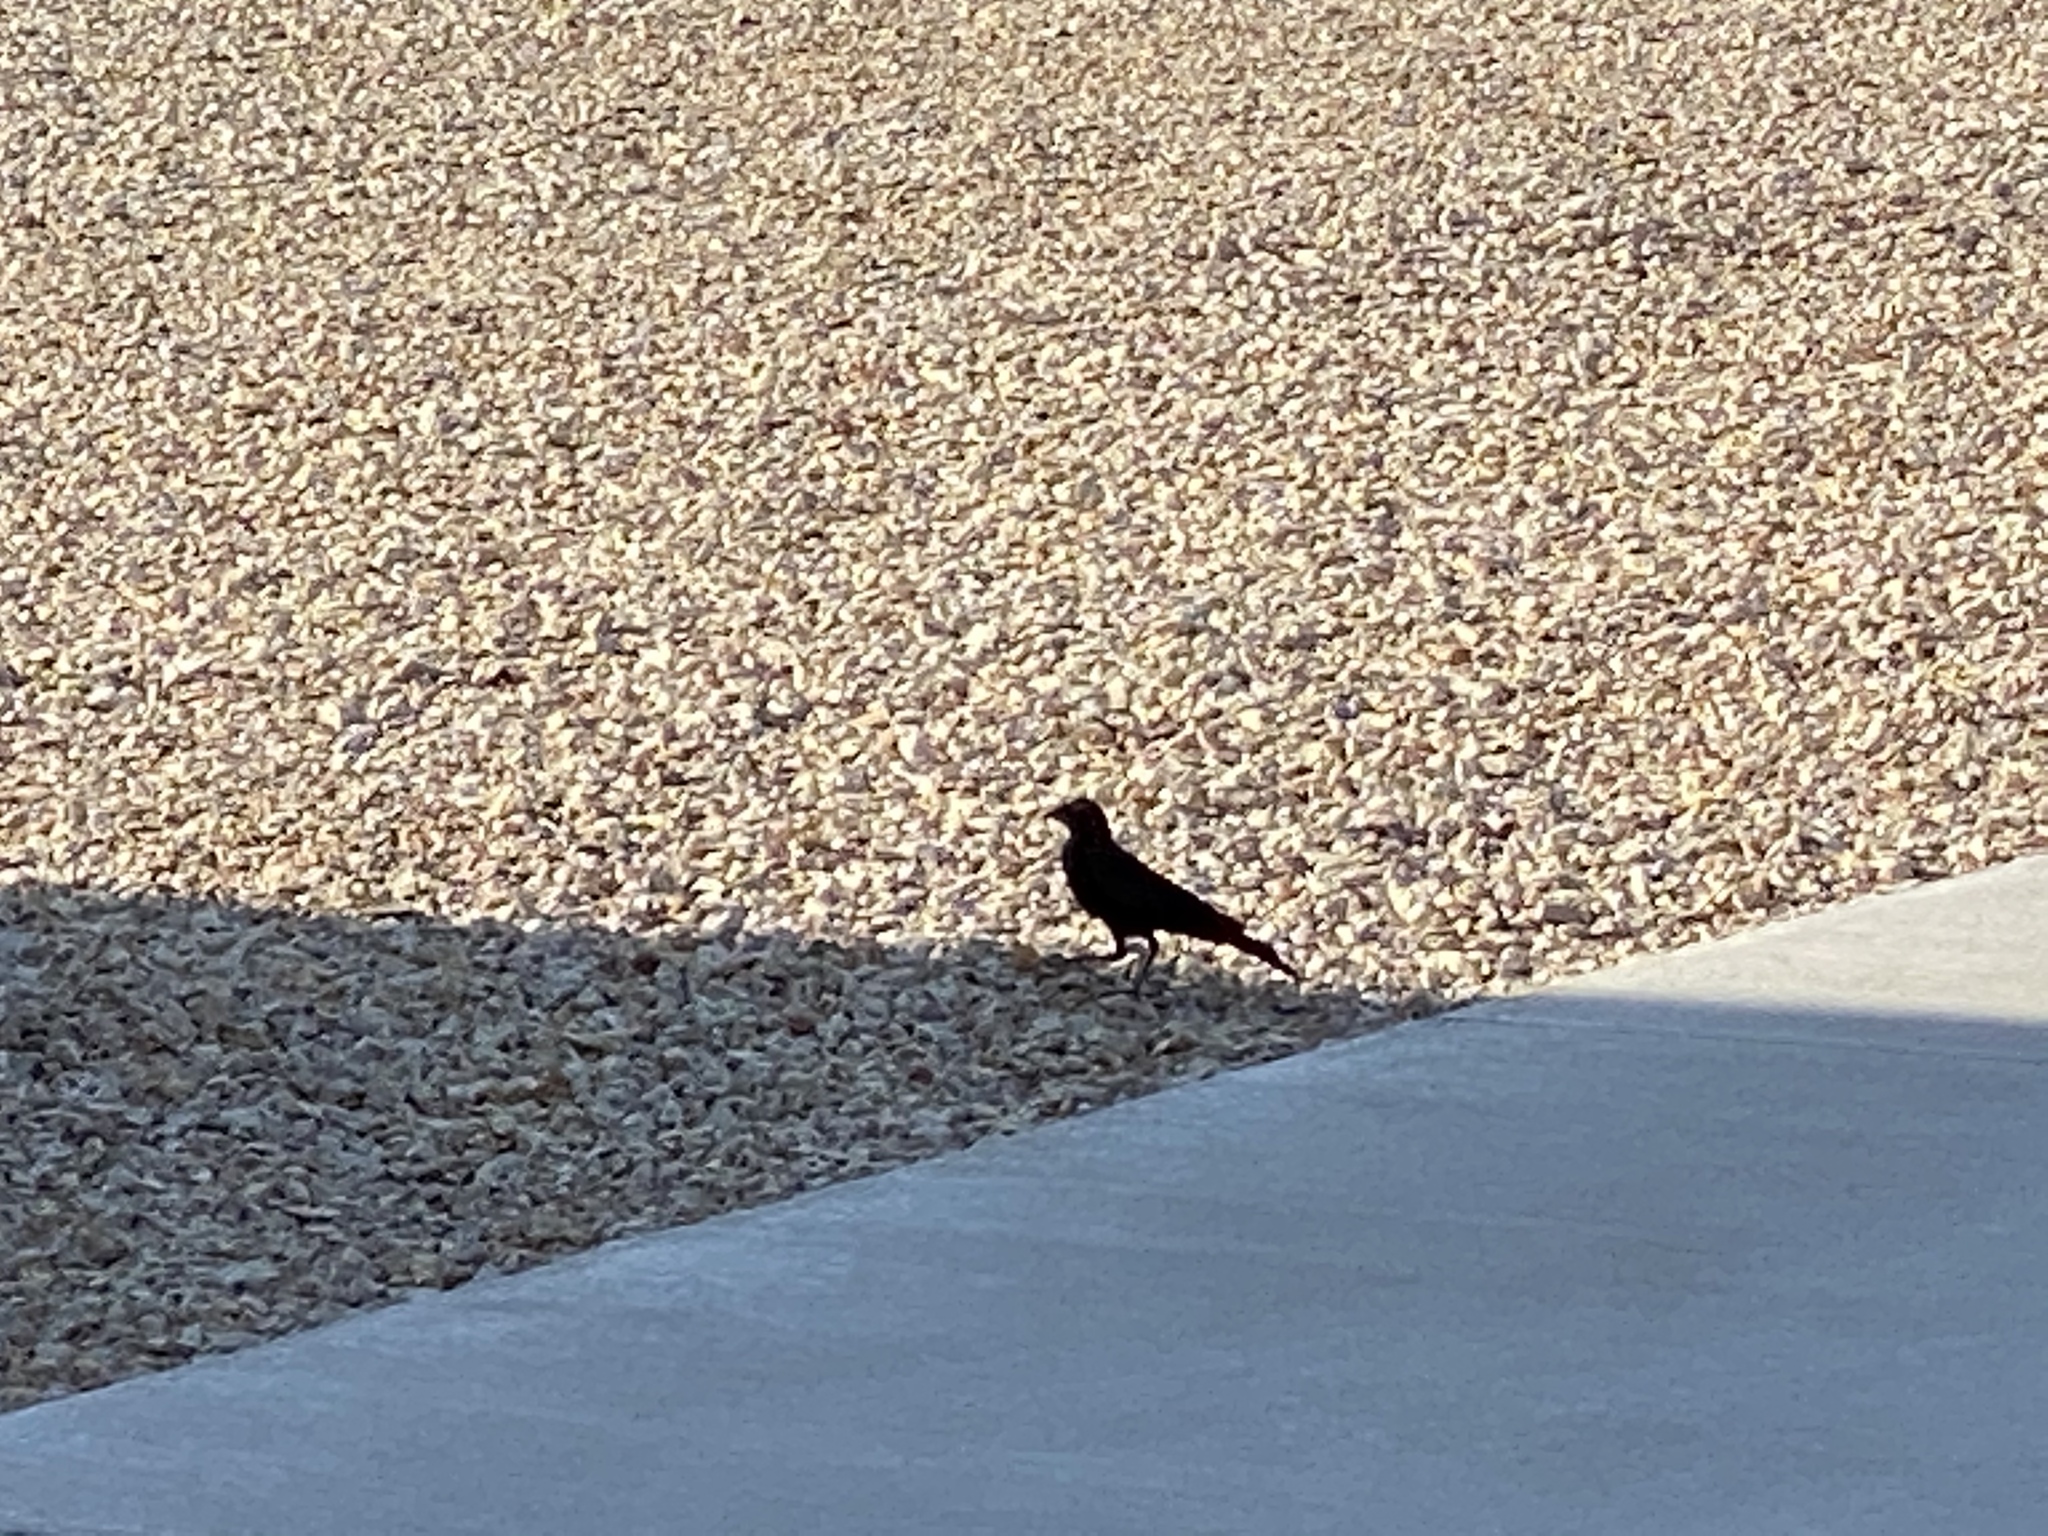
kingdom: Animalia
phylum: Chordata
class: Aves
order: Passeriformes
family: Icteridae
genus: Euphagus
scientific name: Euphagus cyanocephalus
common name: Brewer's blackbird
